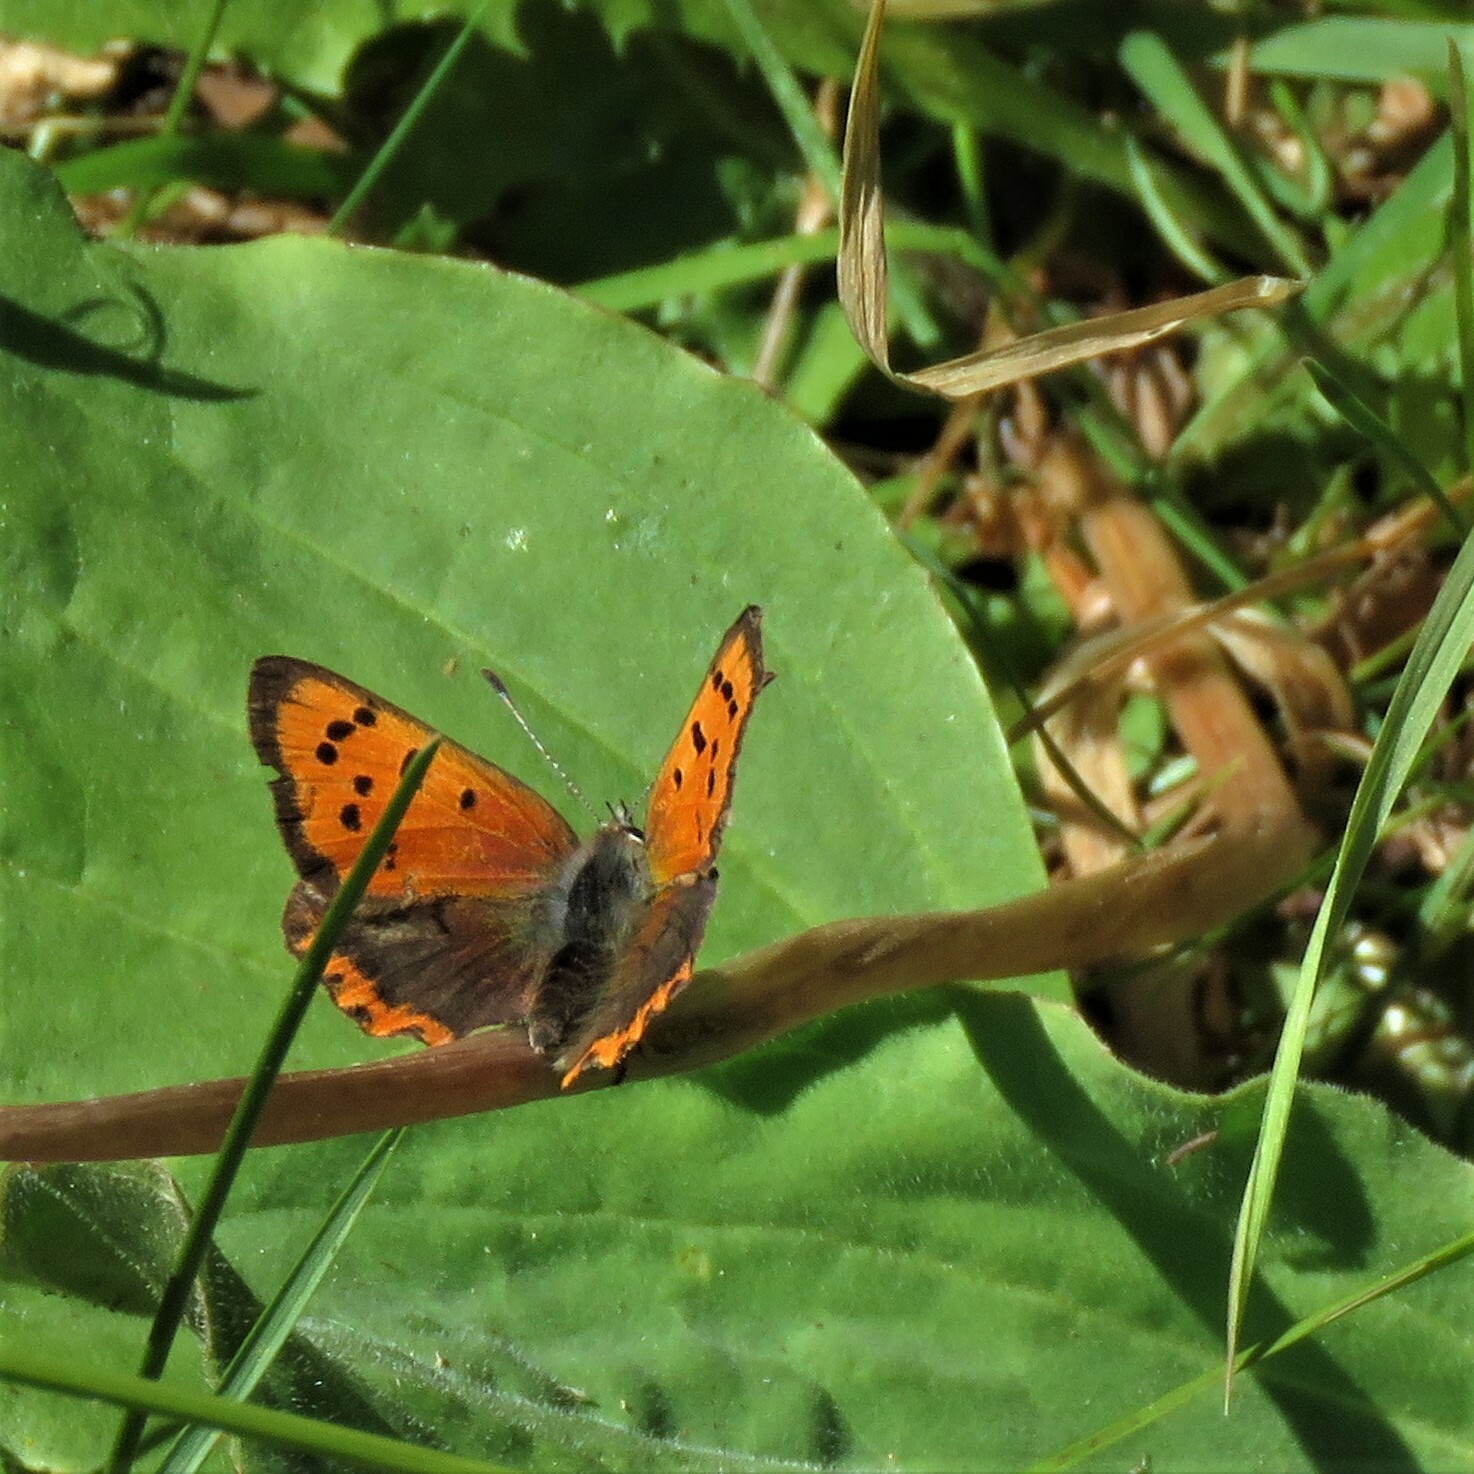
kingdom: Animalia
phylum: Arthropoda
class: Insecta
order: Lepidoptera
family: Lycaenidae
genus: Lycaena
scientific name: Lycaena phlaeas
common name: Small copper
